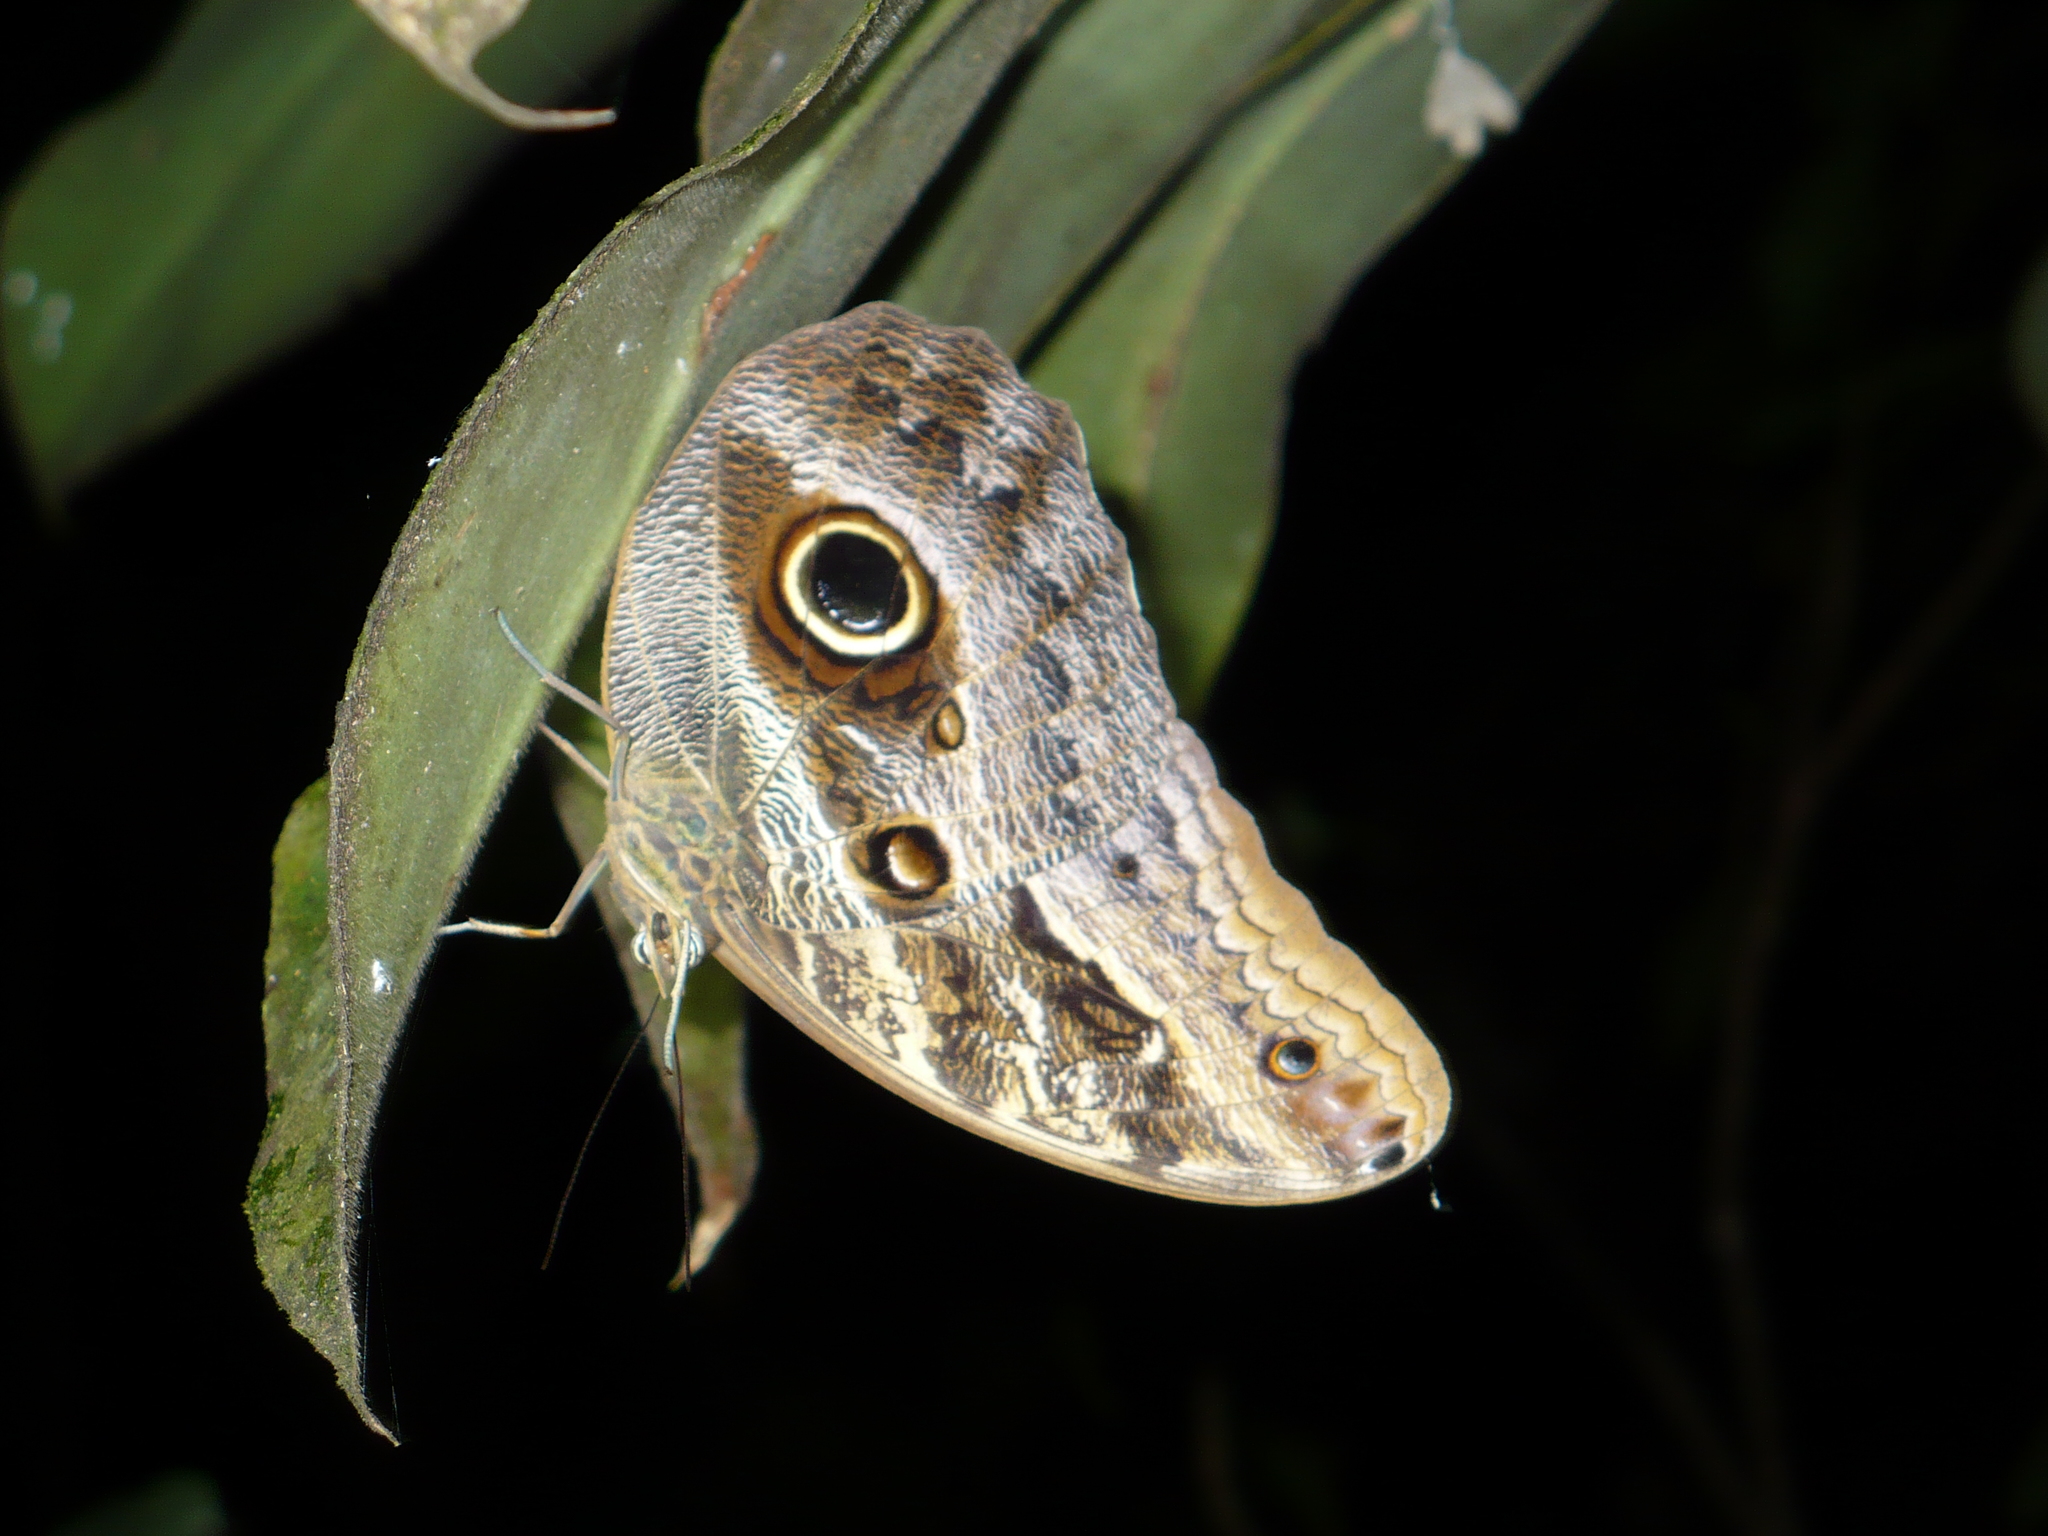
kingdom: Animalia
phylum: Arthropoda
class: Insecta
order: Lepidoptera
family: Nymphalidae
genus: Caligo
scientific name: Caligo teucer
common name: Teucer owl butterfly
